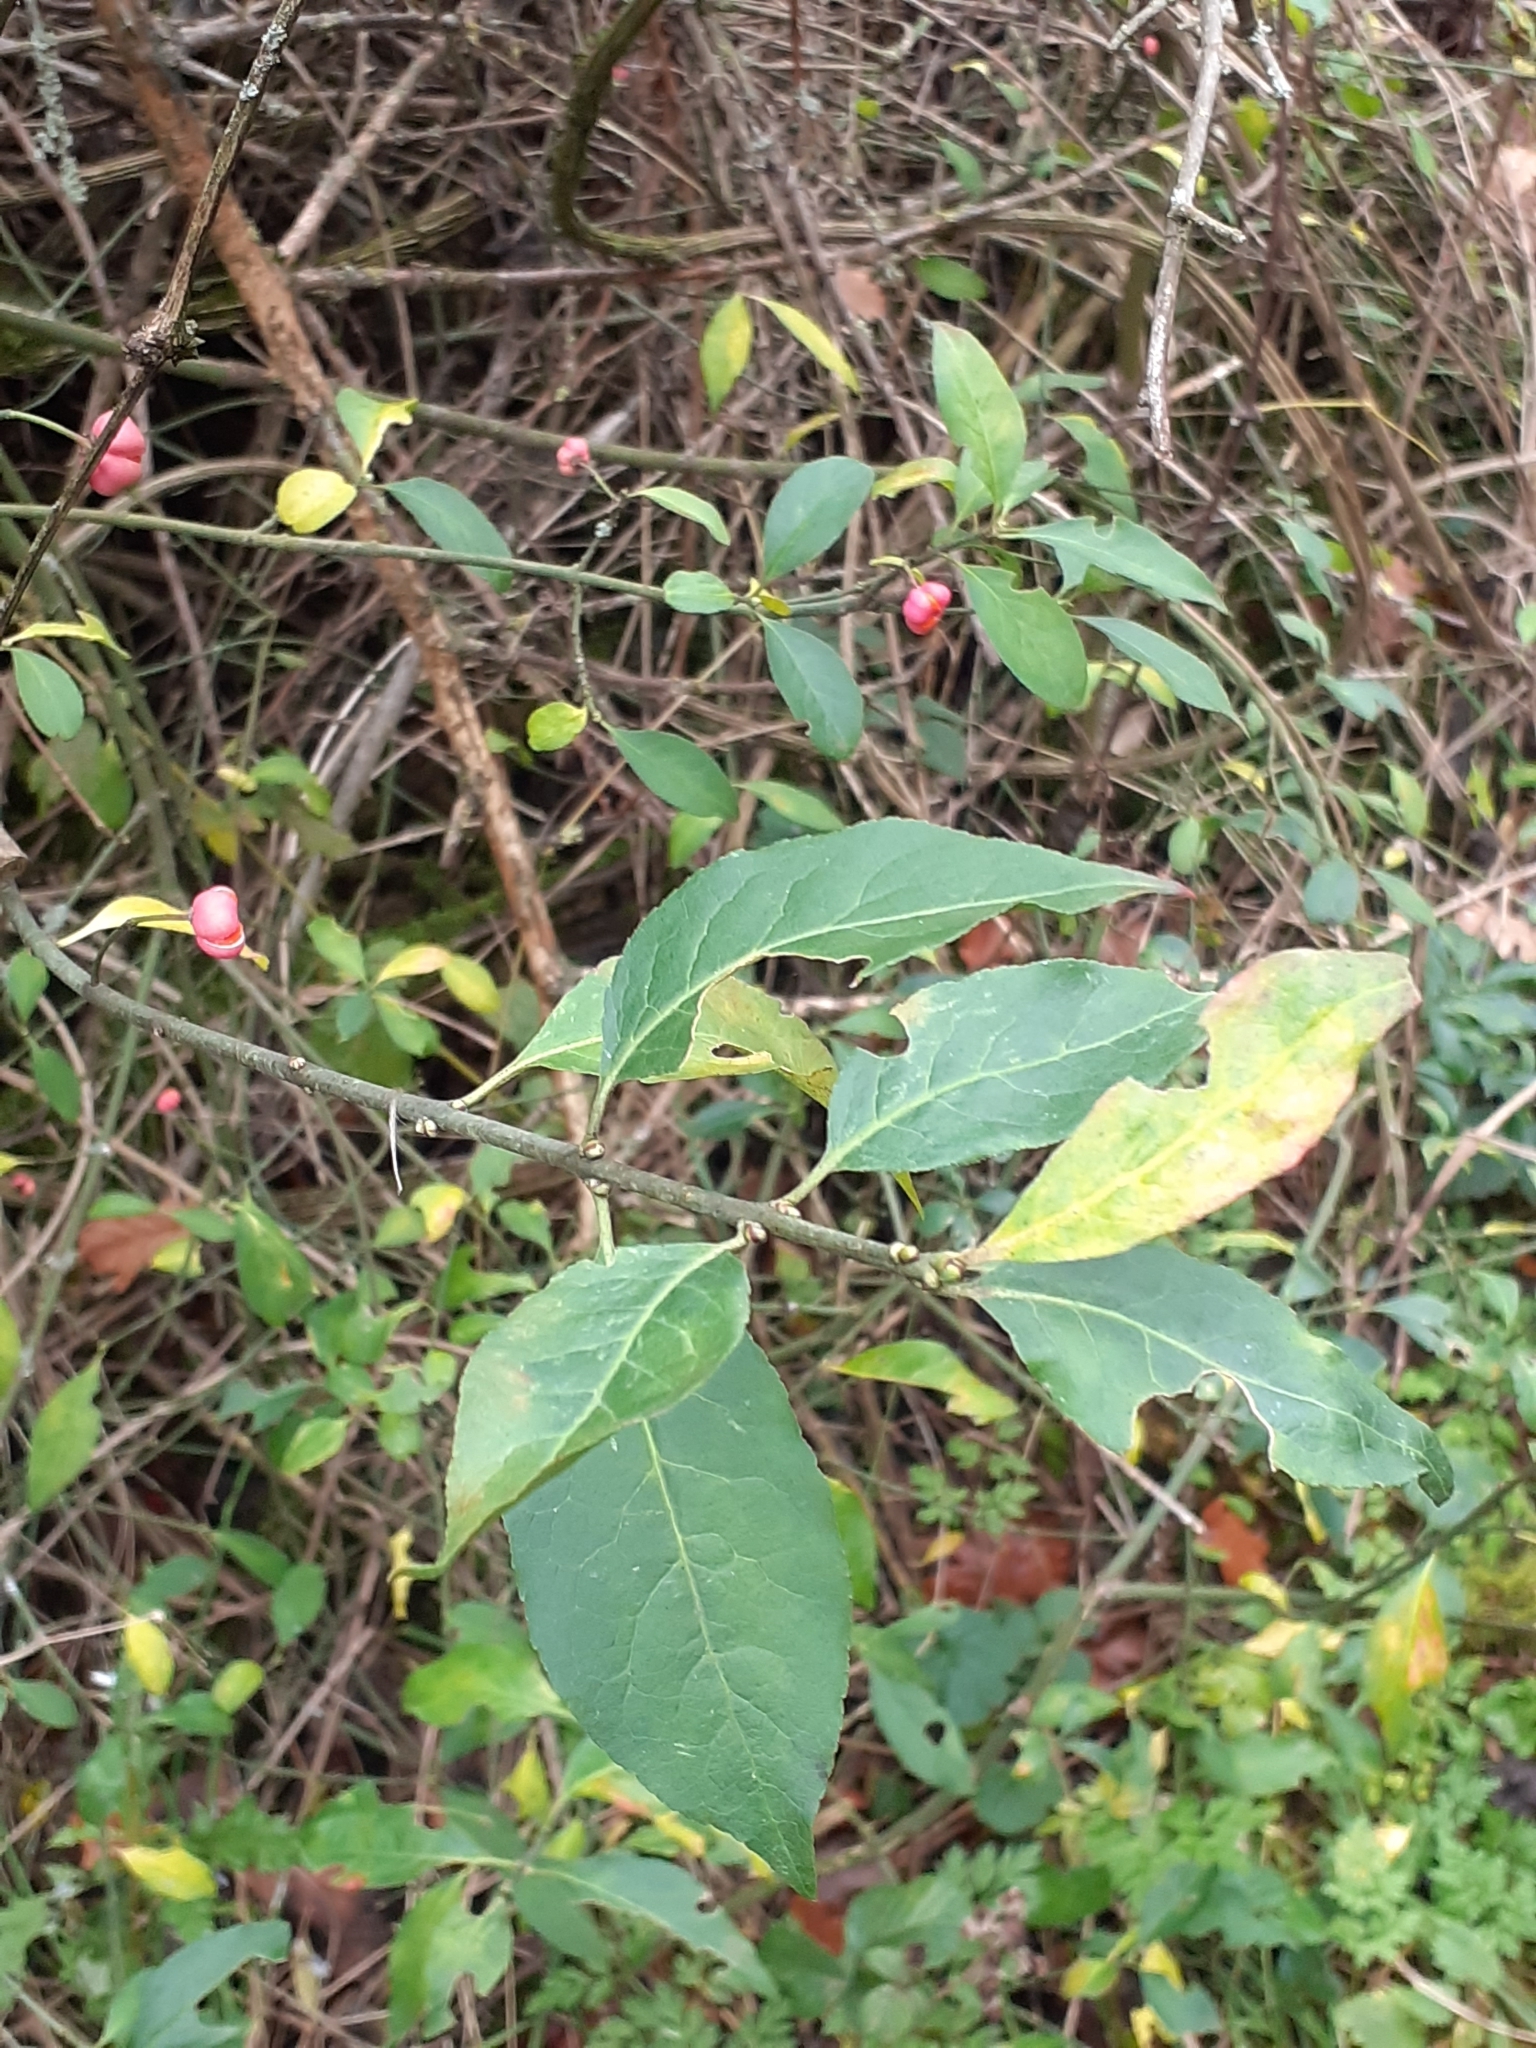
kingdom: Plantae
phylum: Tracheophyta
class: Magnoliopsida
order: Celastrales
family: Celastraceae
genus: Euonymus
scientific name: Euonymus europaeus
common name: Spindle
